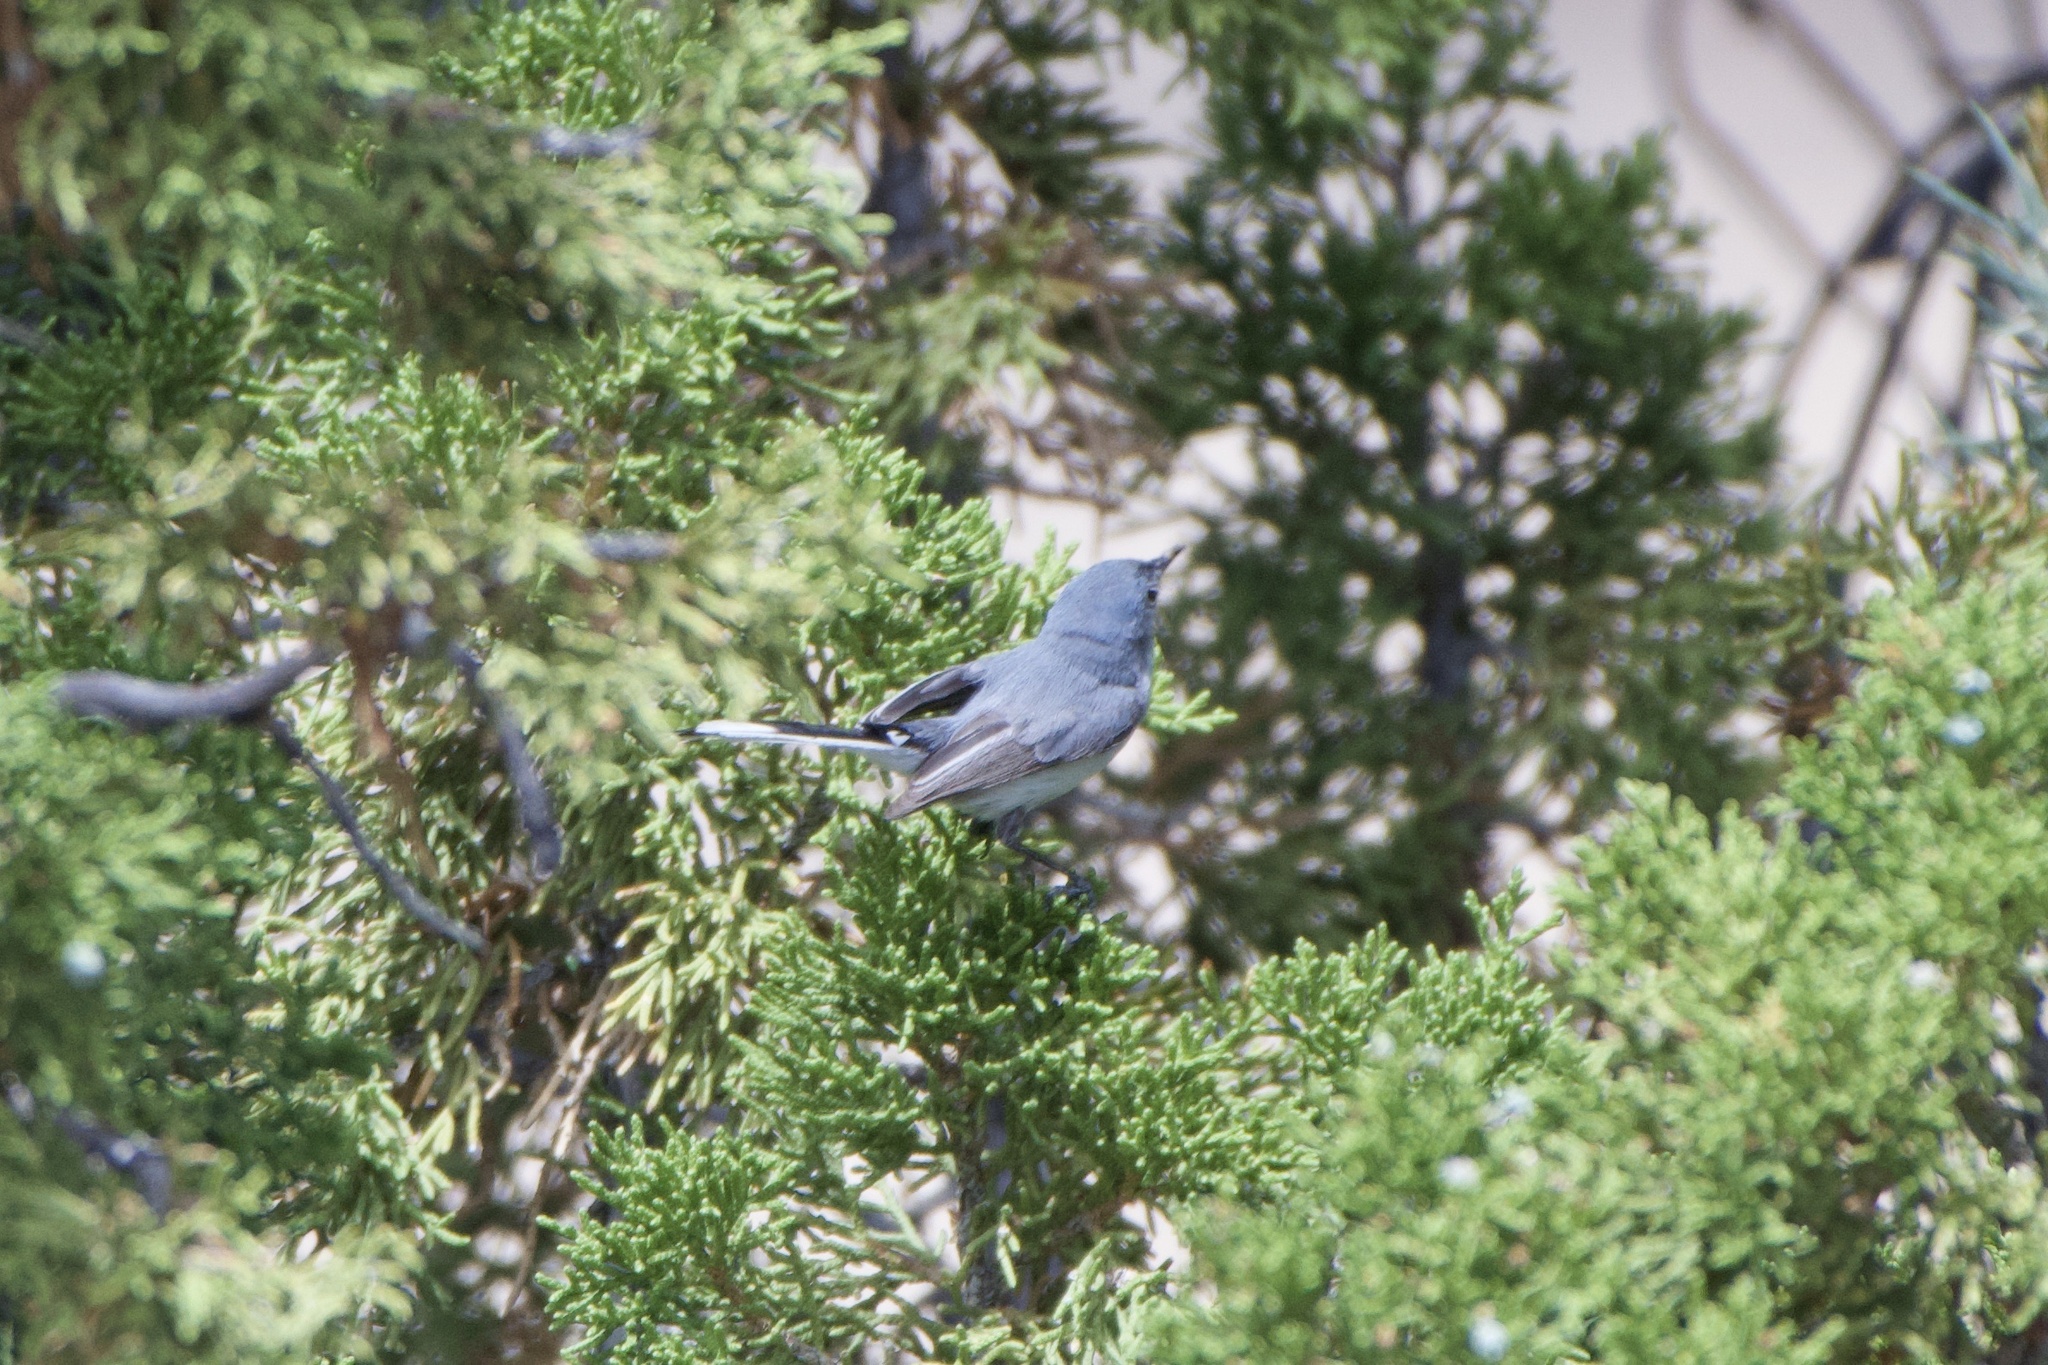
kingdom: Animalia
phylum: Chordata
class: Aves
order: Passeriformes
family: Polioptilidae
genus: Polioptila
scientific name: Polioptila caerulea
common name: Blue-gray gnatcatcher
